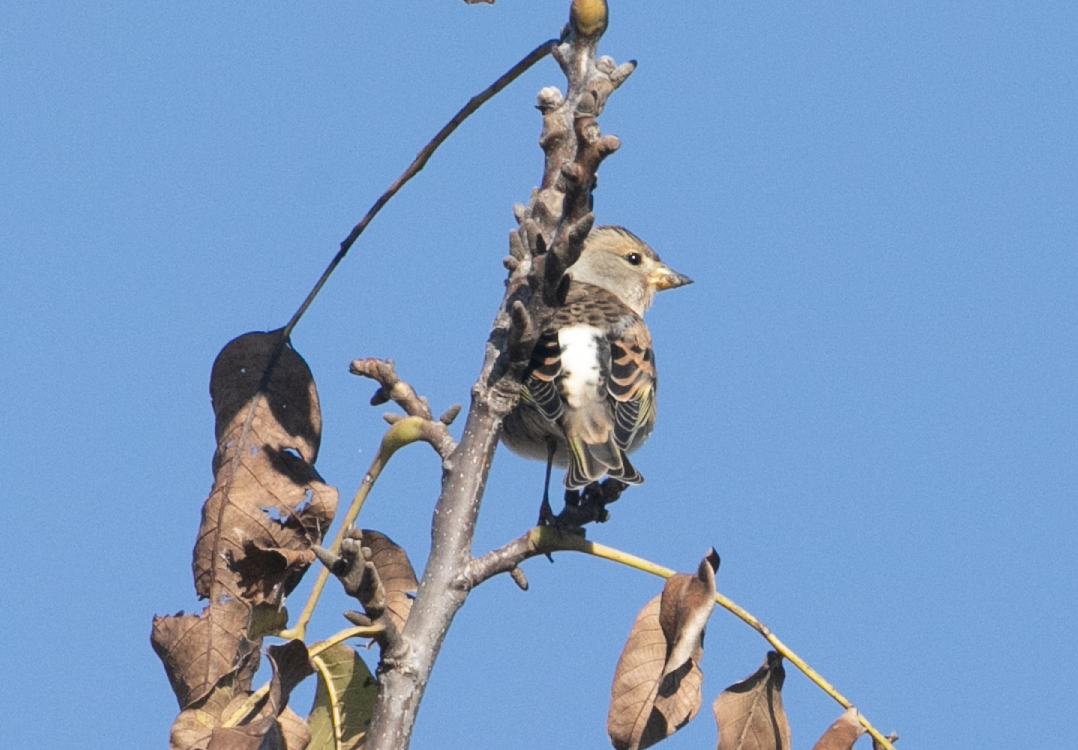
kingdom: Animalia
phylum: Chordata
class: Aves
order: Passeriformes
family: Fringillidae
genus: Fringilla
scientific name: Fringilla montifringilla
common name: Brambling
